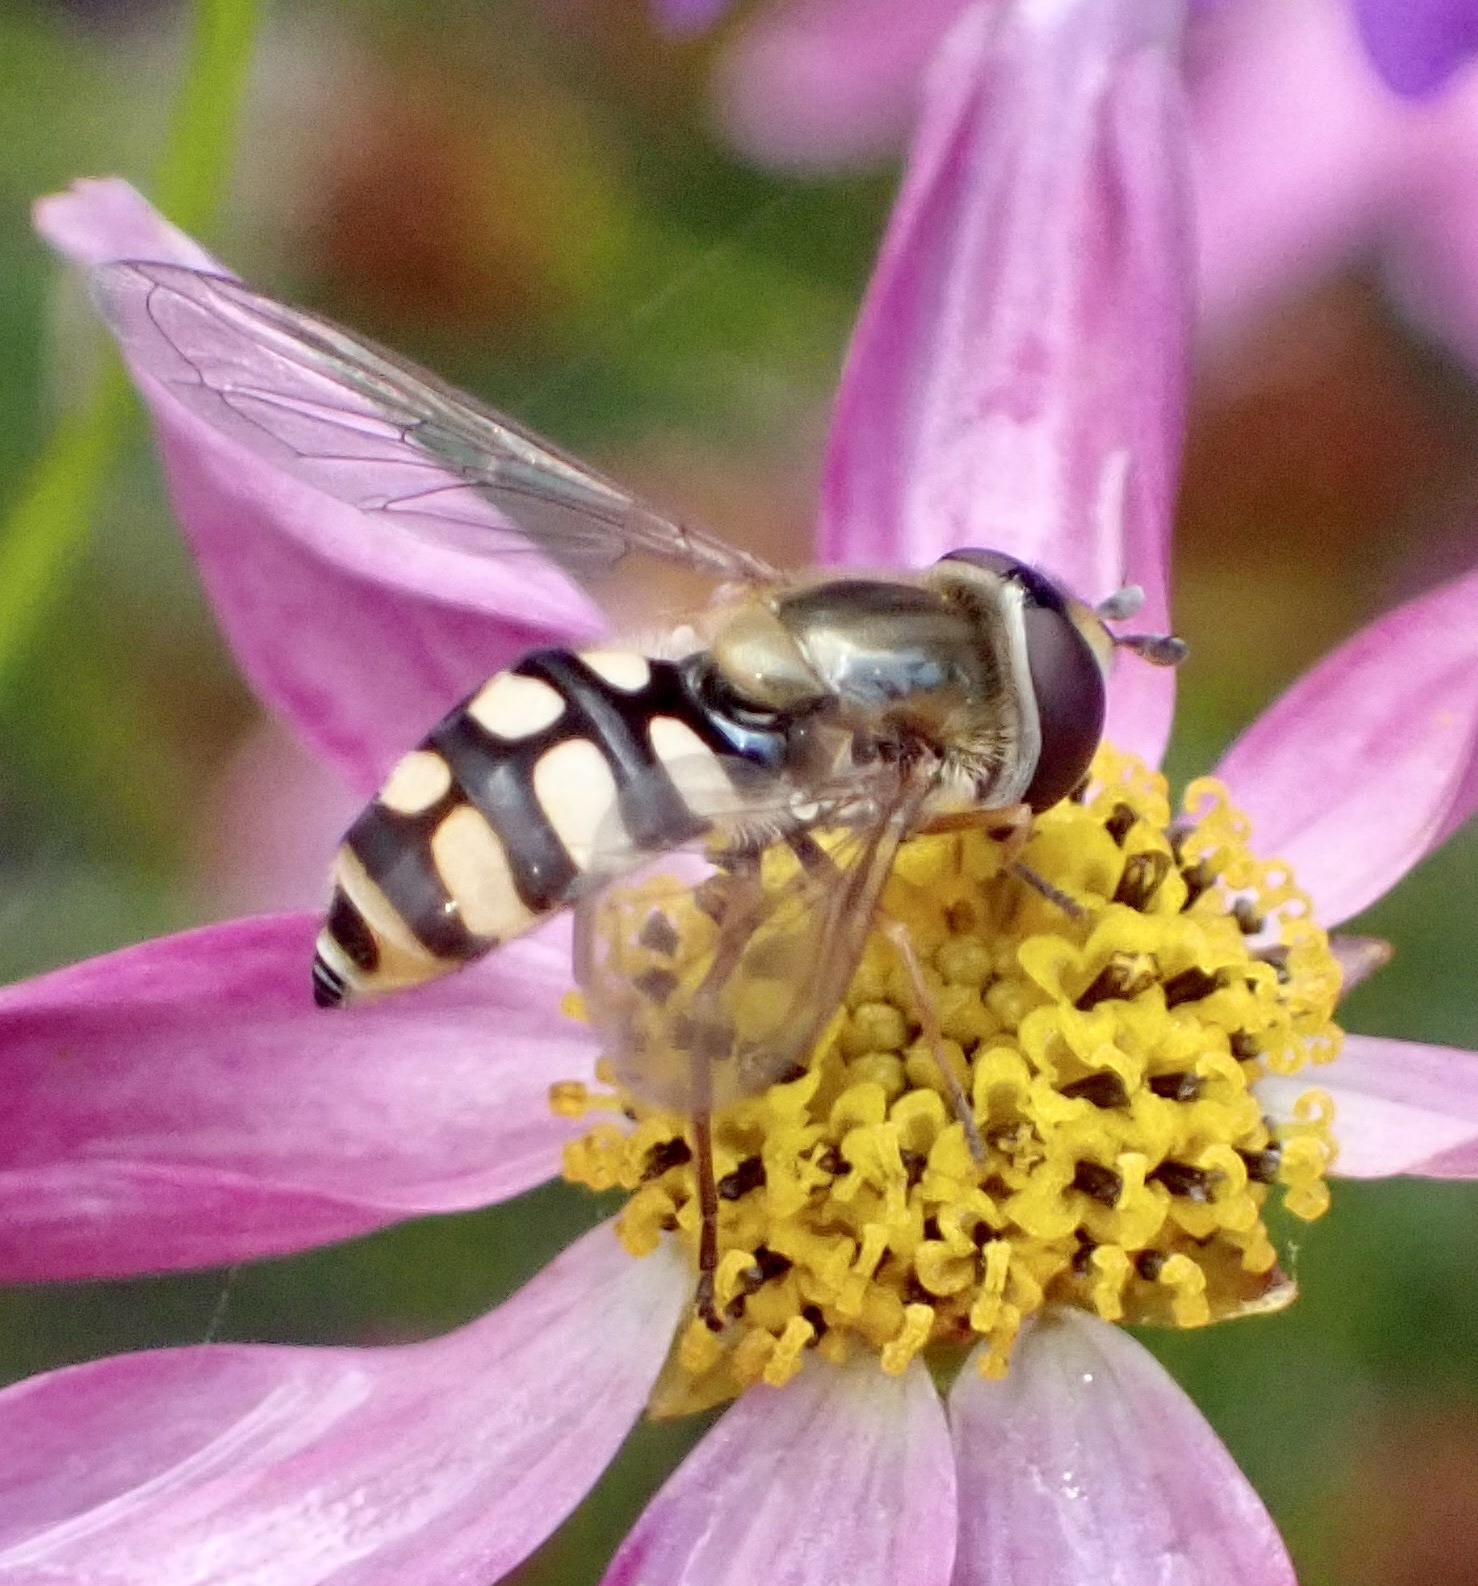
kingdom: Animalia
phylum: Arthropoda
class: Insecta
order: Diptera
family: Syrphidae
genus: Eupeodes
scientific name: Eupeodes corollae
